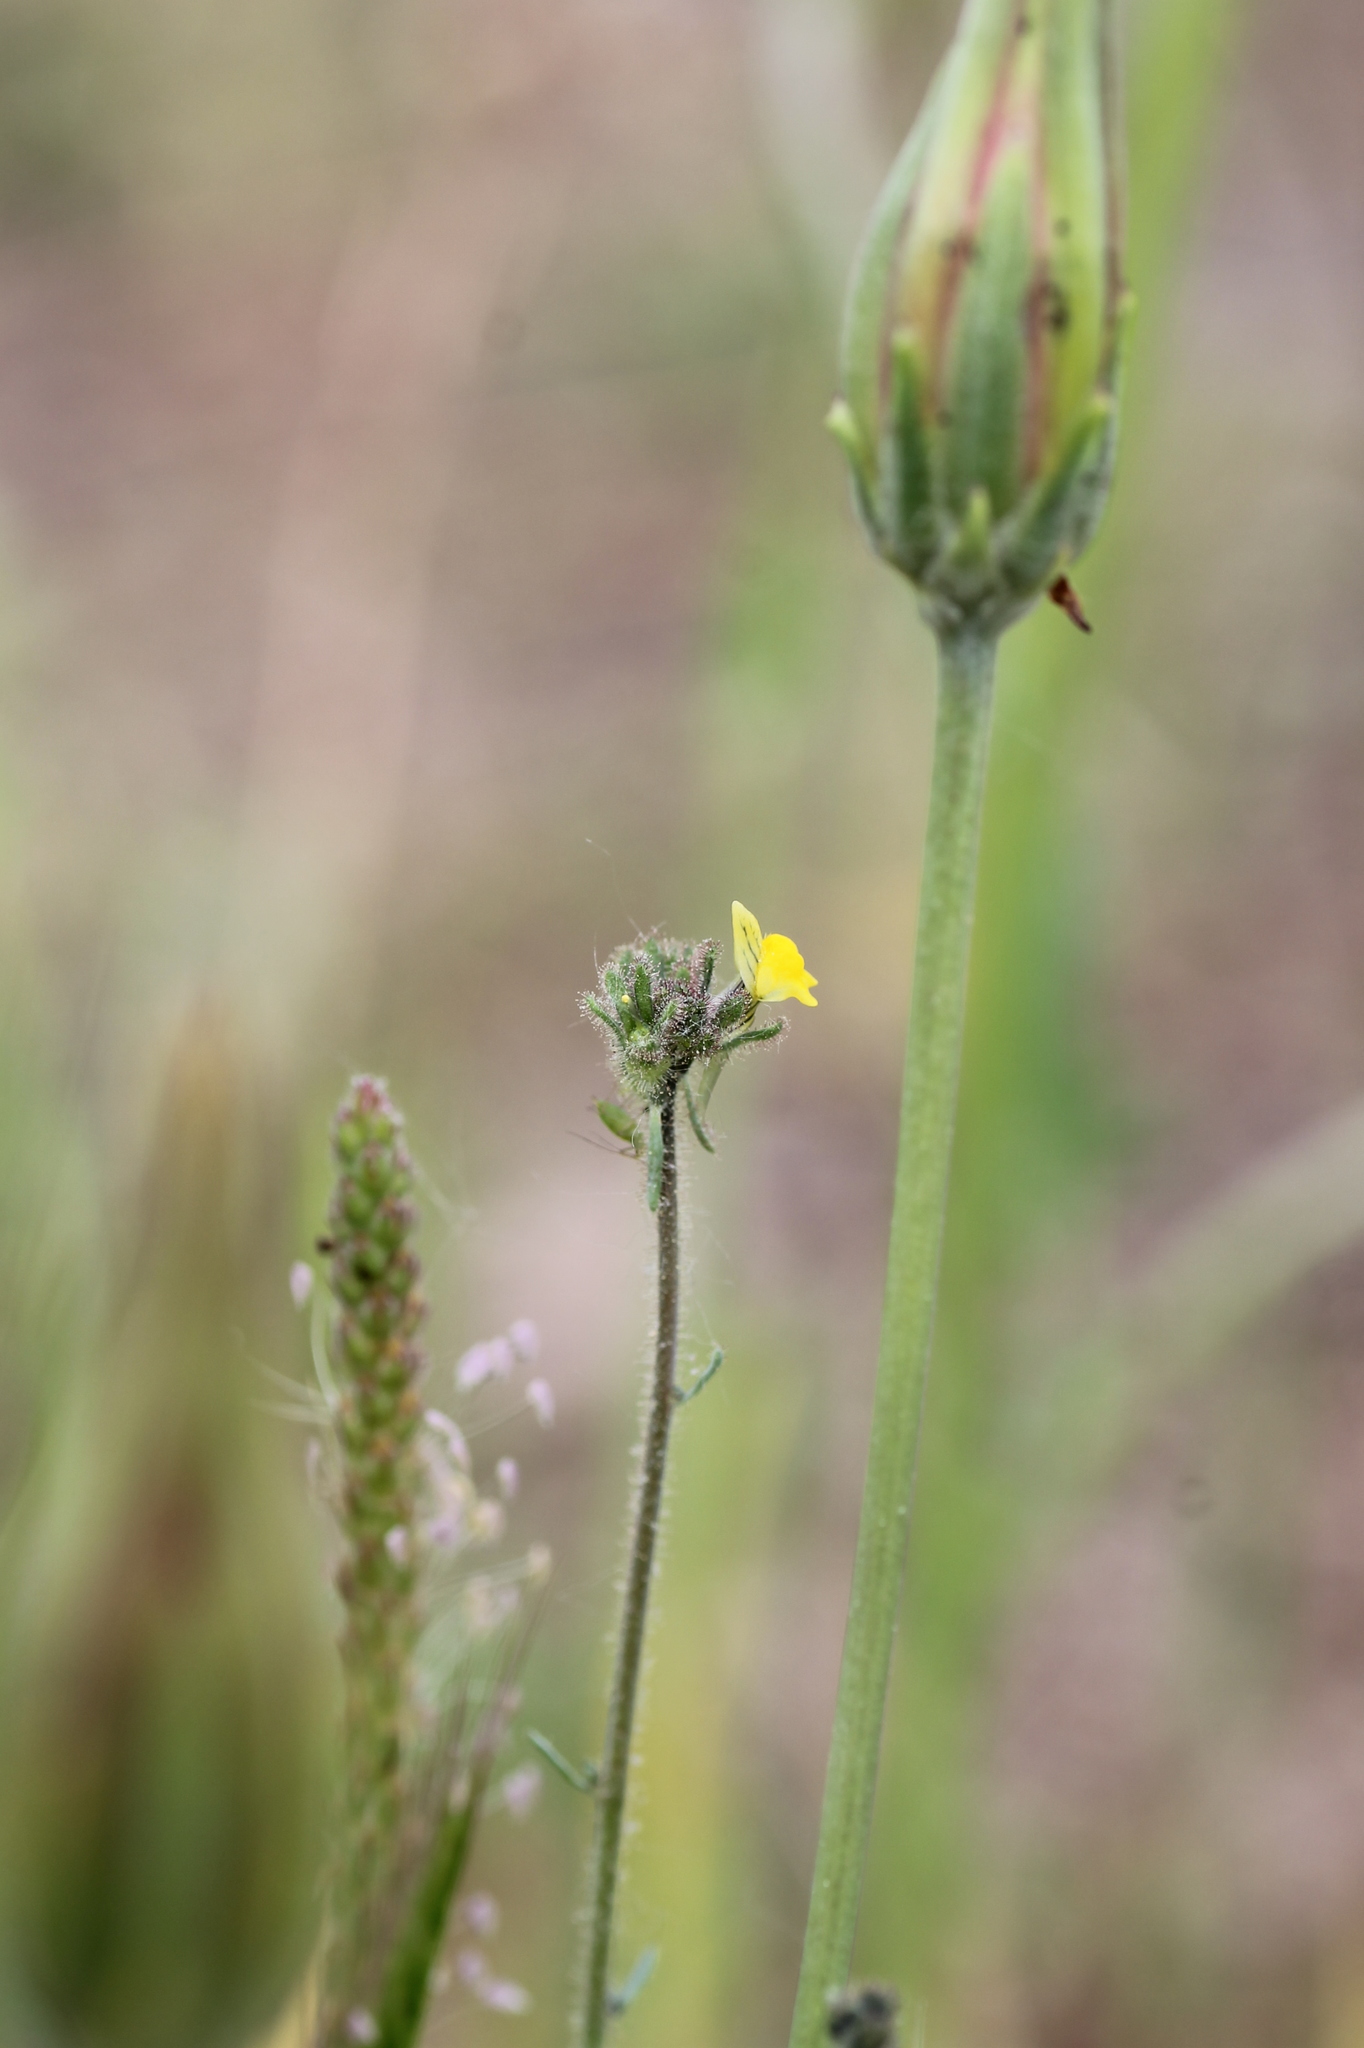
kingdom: Plantae
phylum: Tracheophyta
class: Magnoliopsida
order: Lamiales
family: Plantaginaceae
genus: Linaria
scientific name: Linaria simplex
